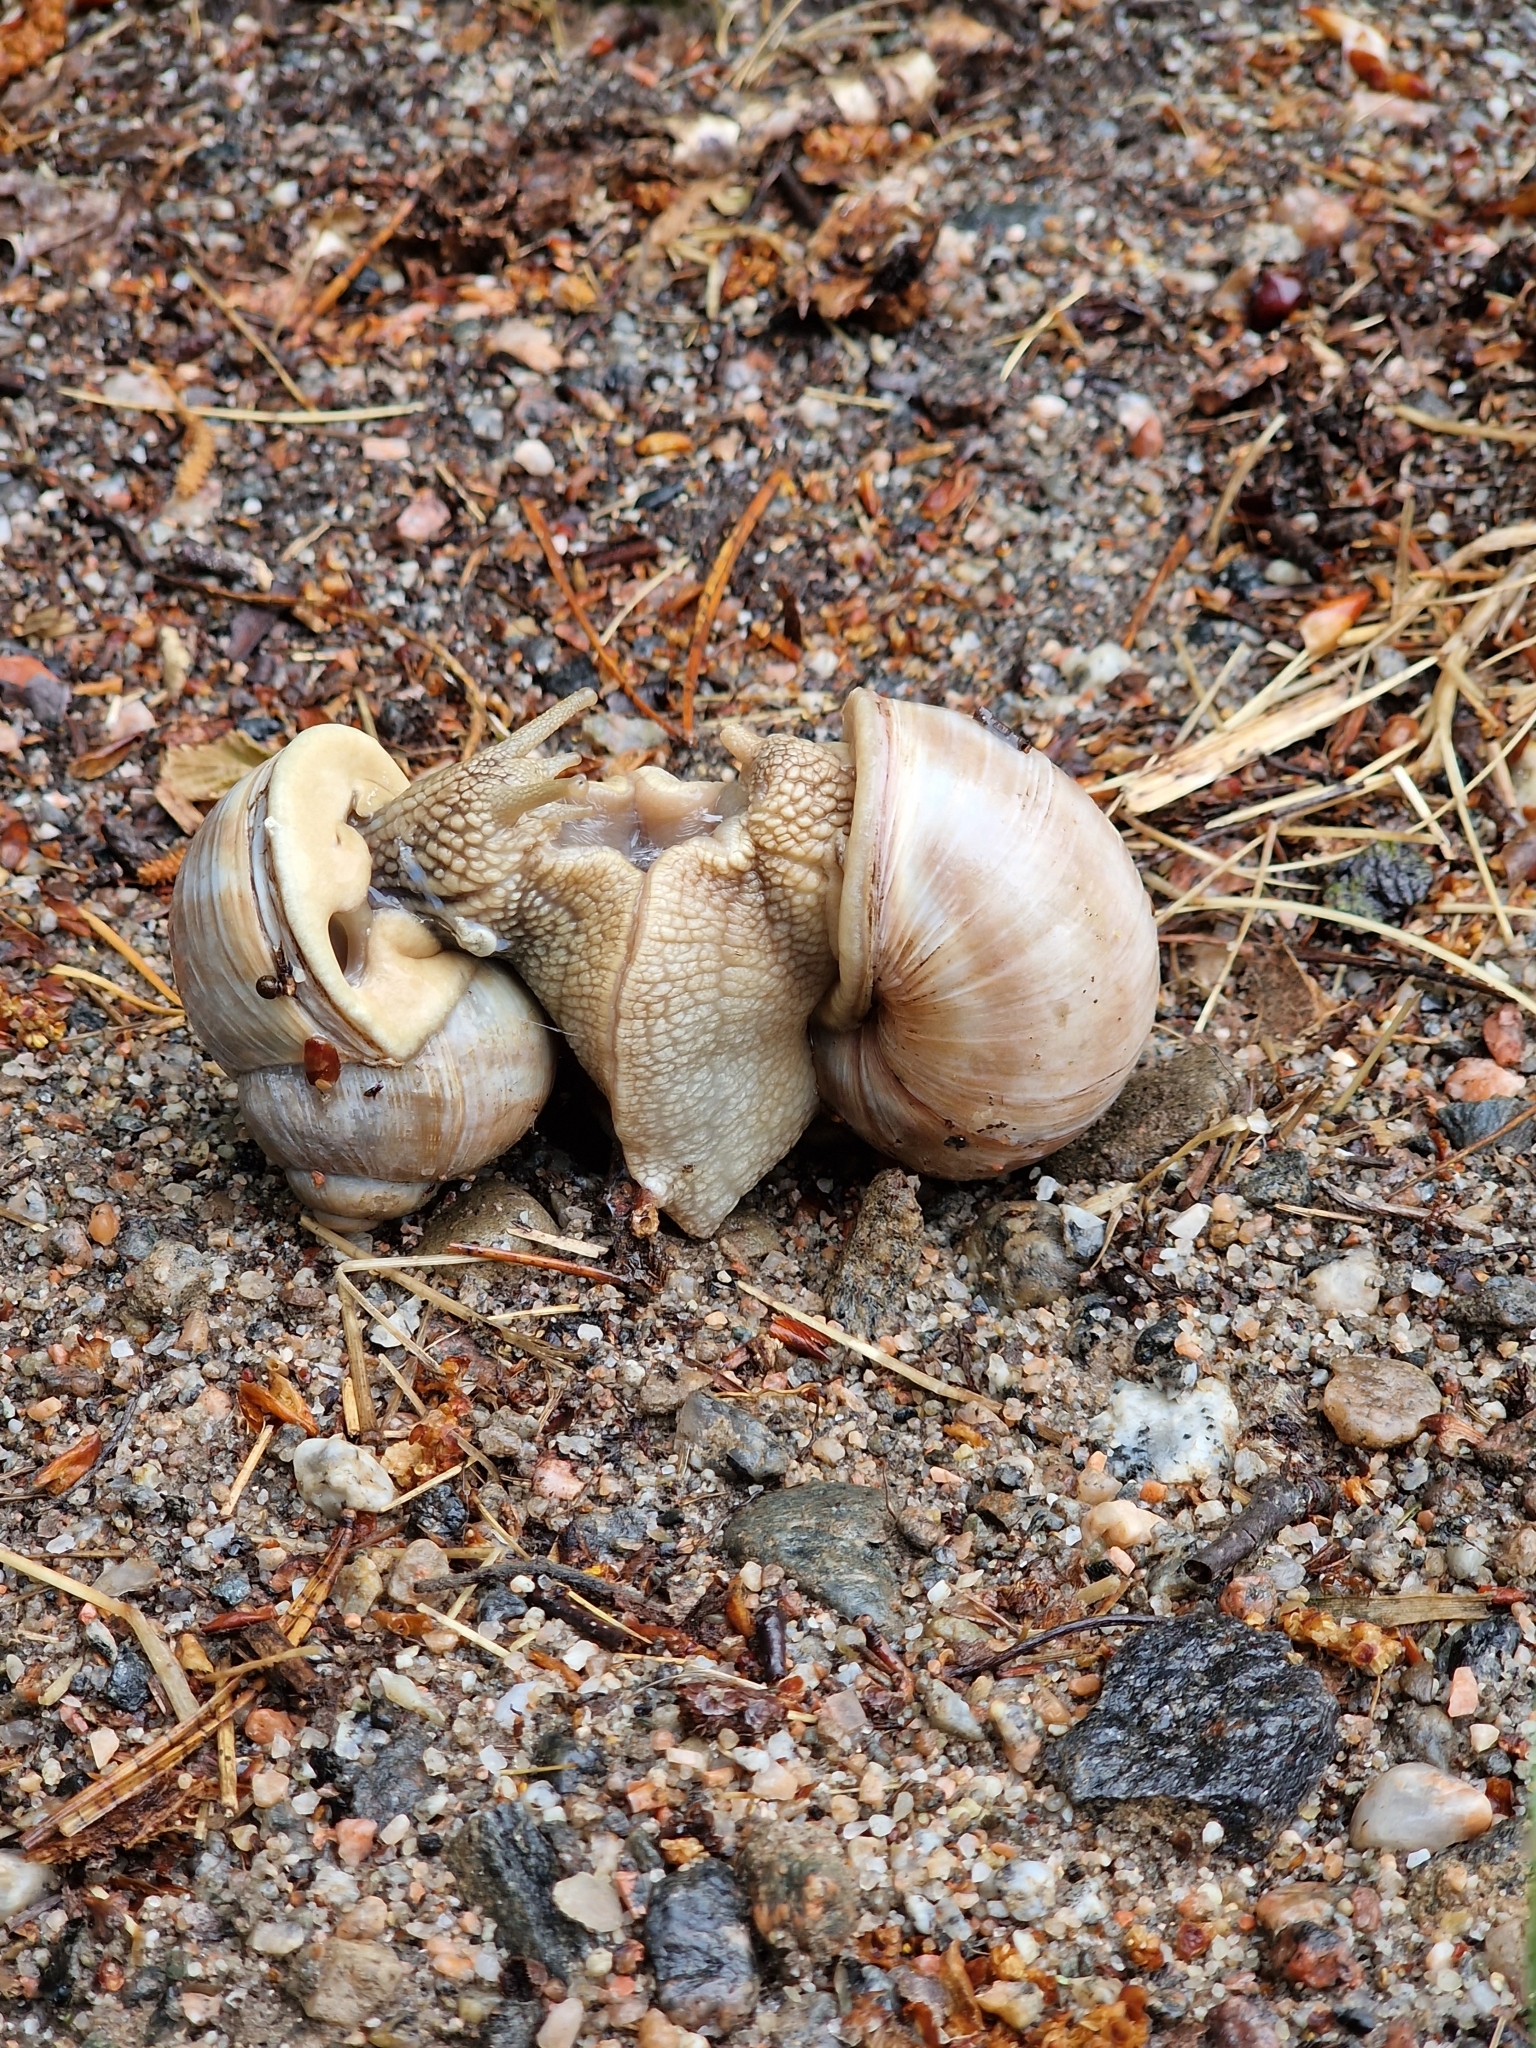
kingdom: Animalia
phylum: Mollusca
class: Gastropoda
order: Stylommatophora
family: Helicidae
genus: Helix
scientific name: Helix pomatia
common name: Roman snail
